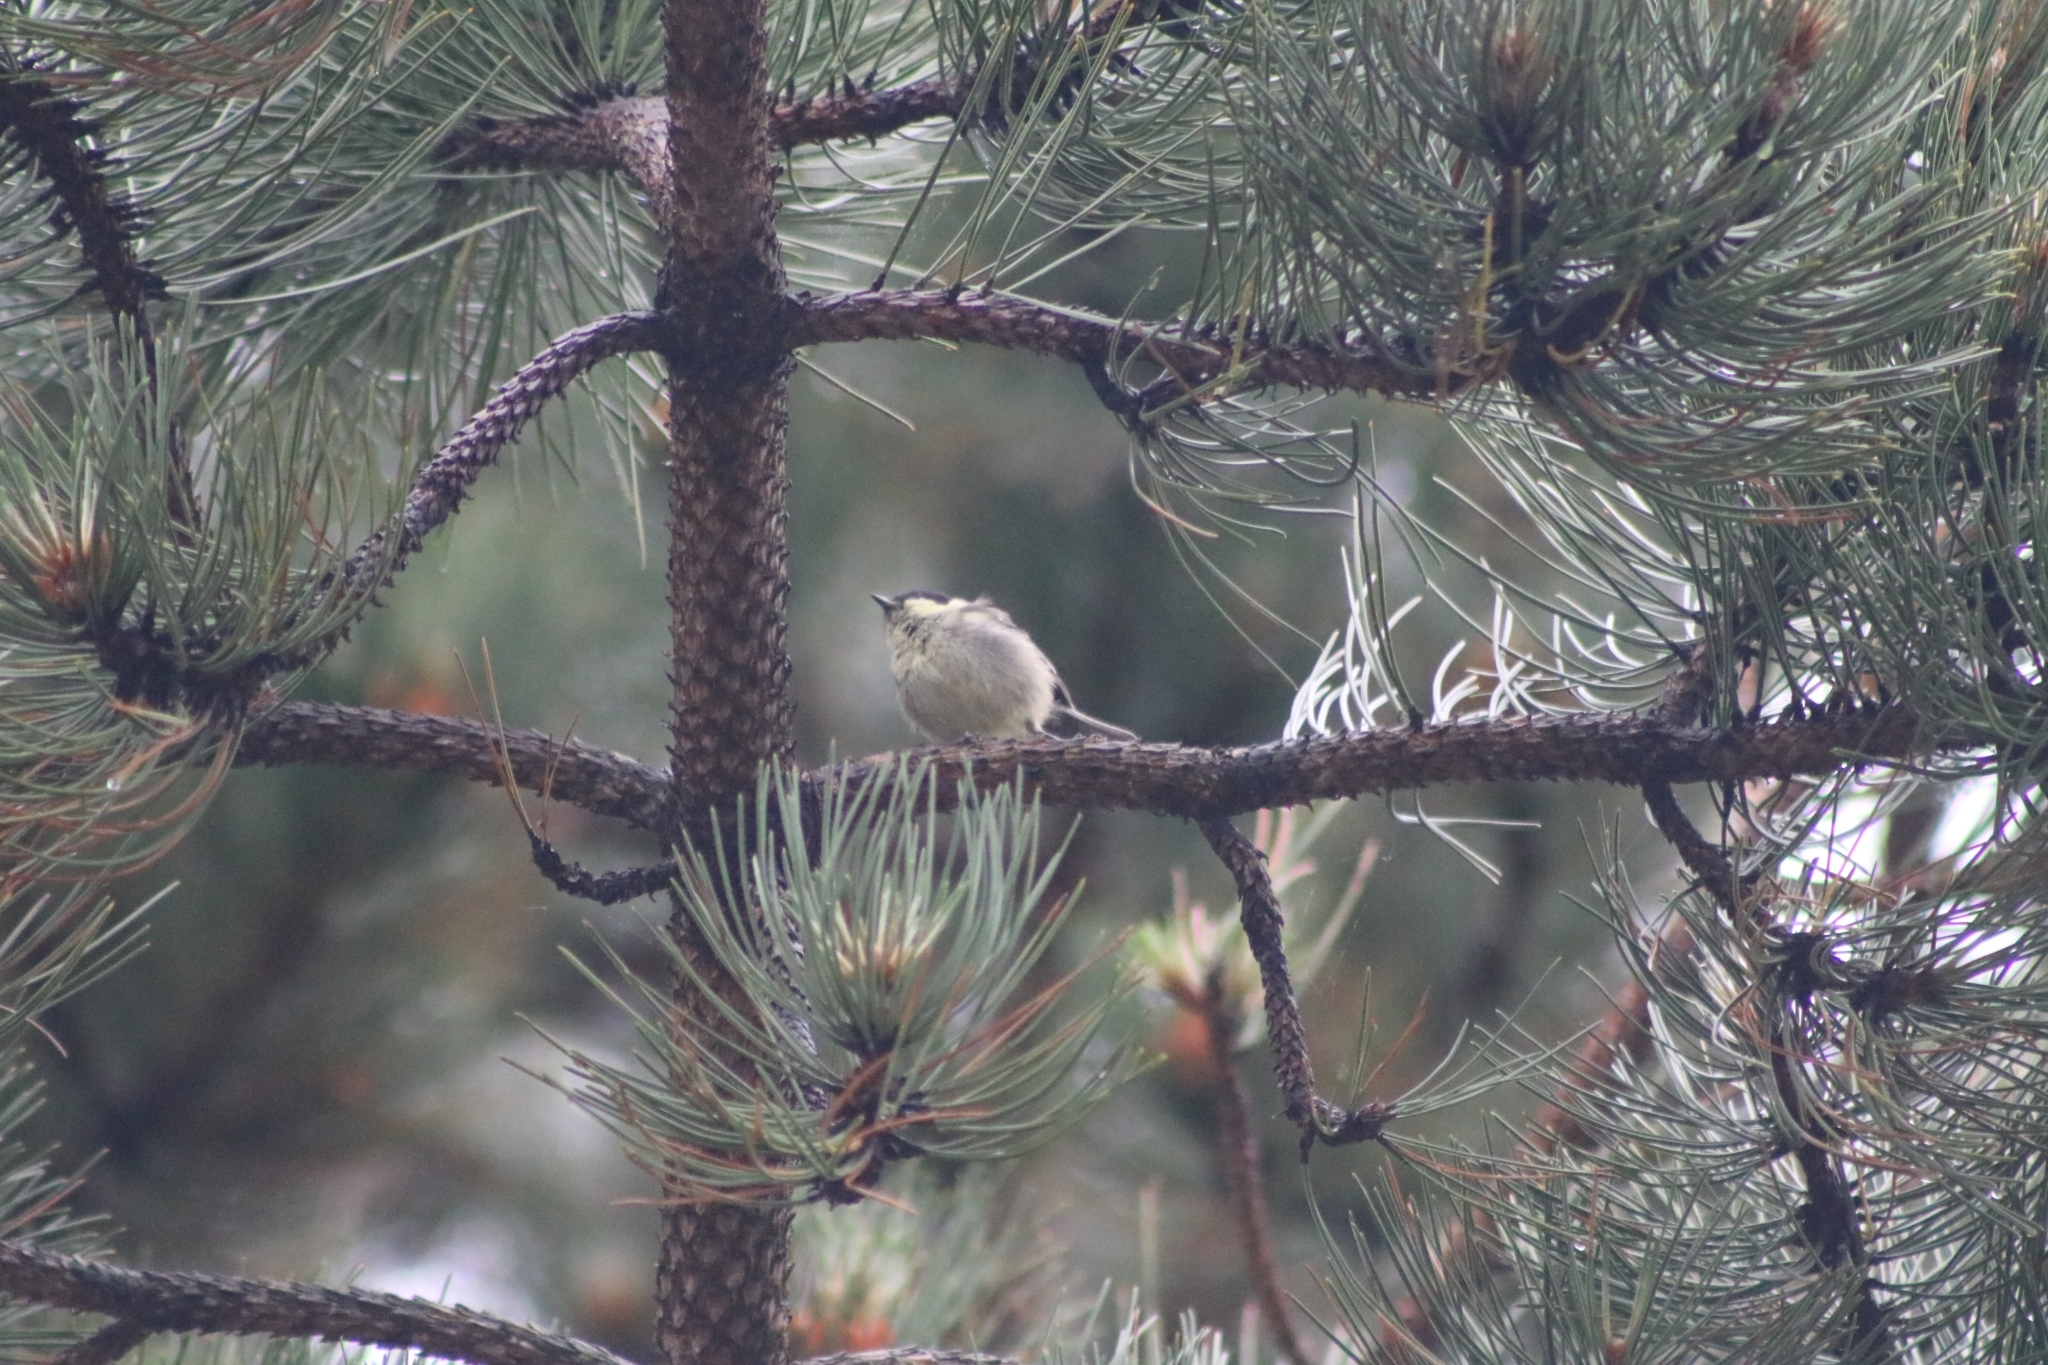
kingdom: Animalia
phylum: Chordata
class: Aves
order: Passeriformes
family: Paridae
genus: Periparus
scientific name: Periparus ater
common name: Coal tit
